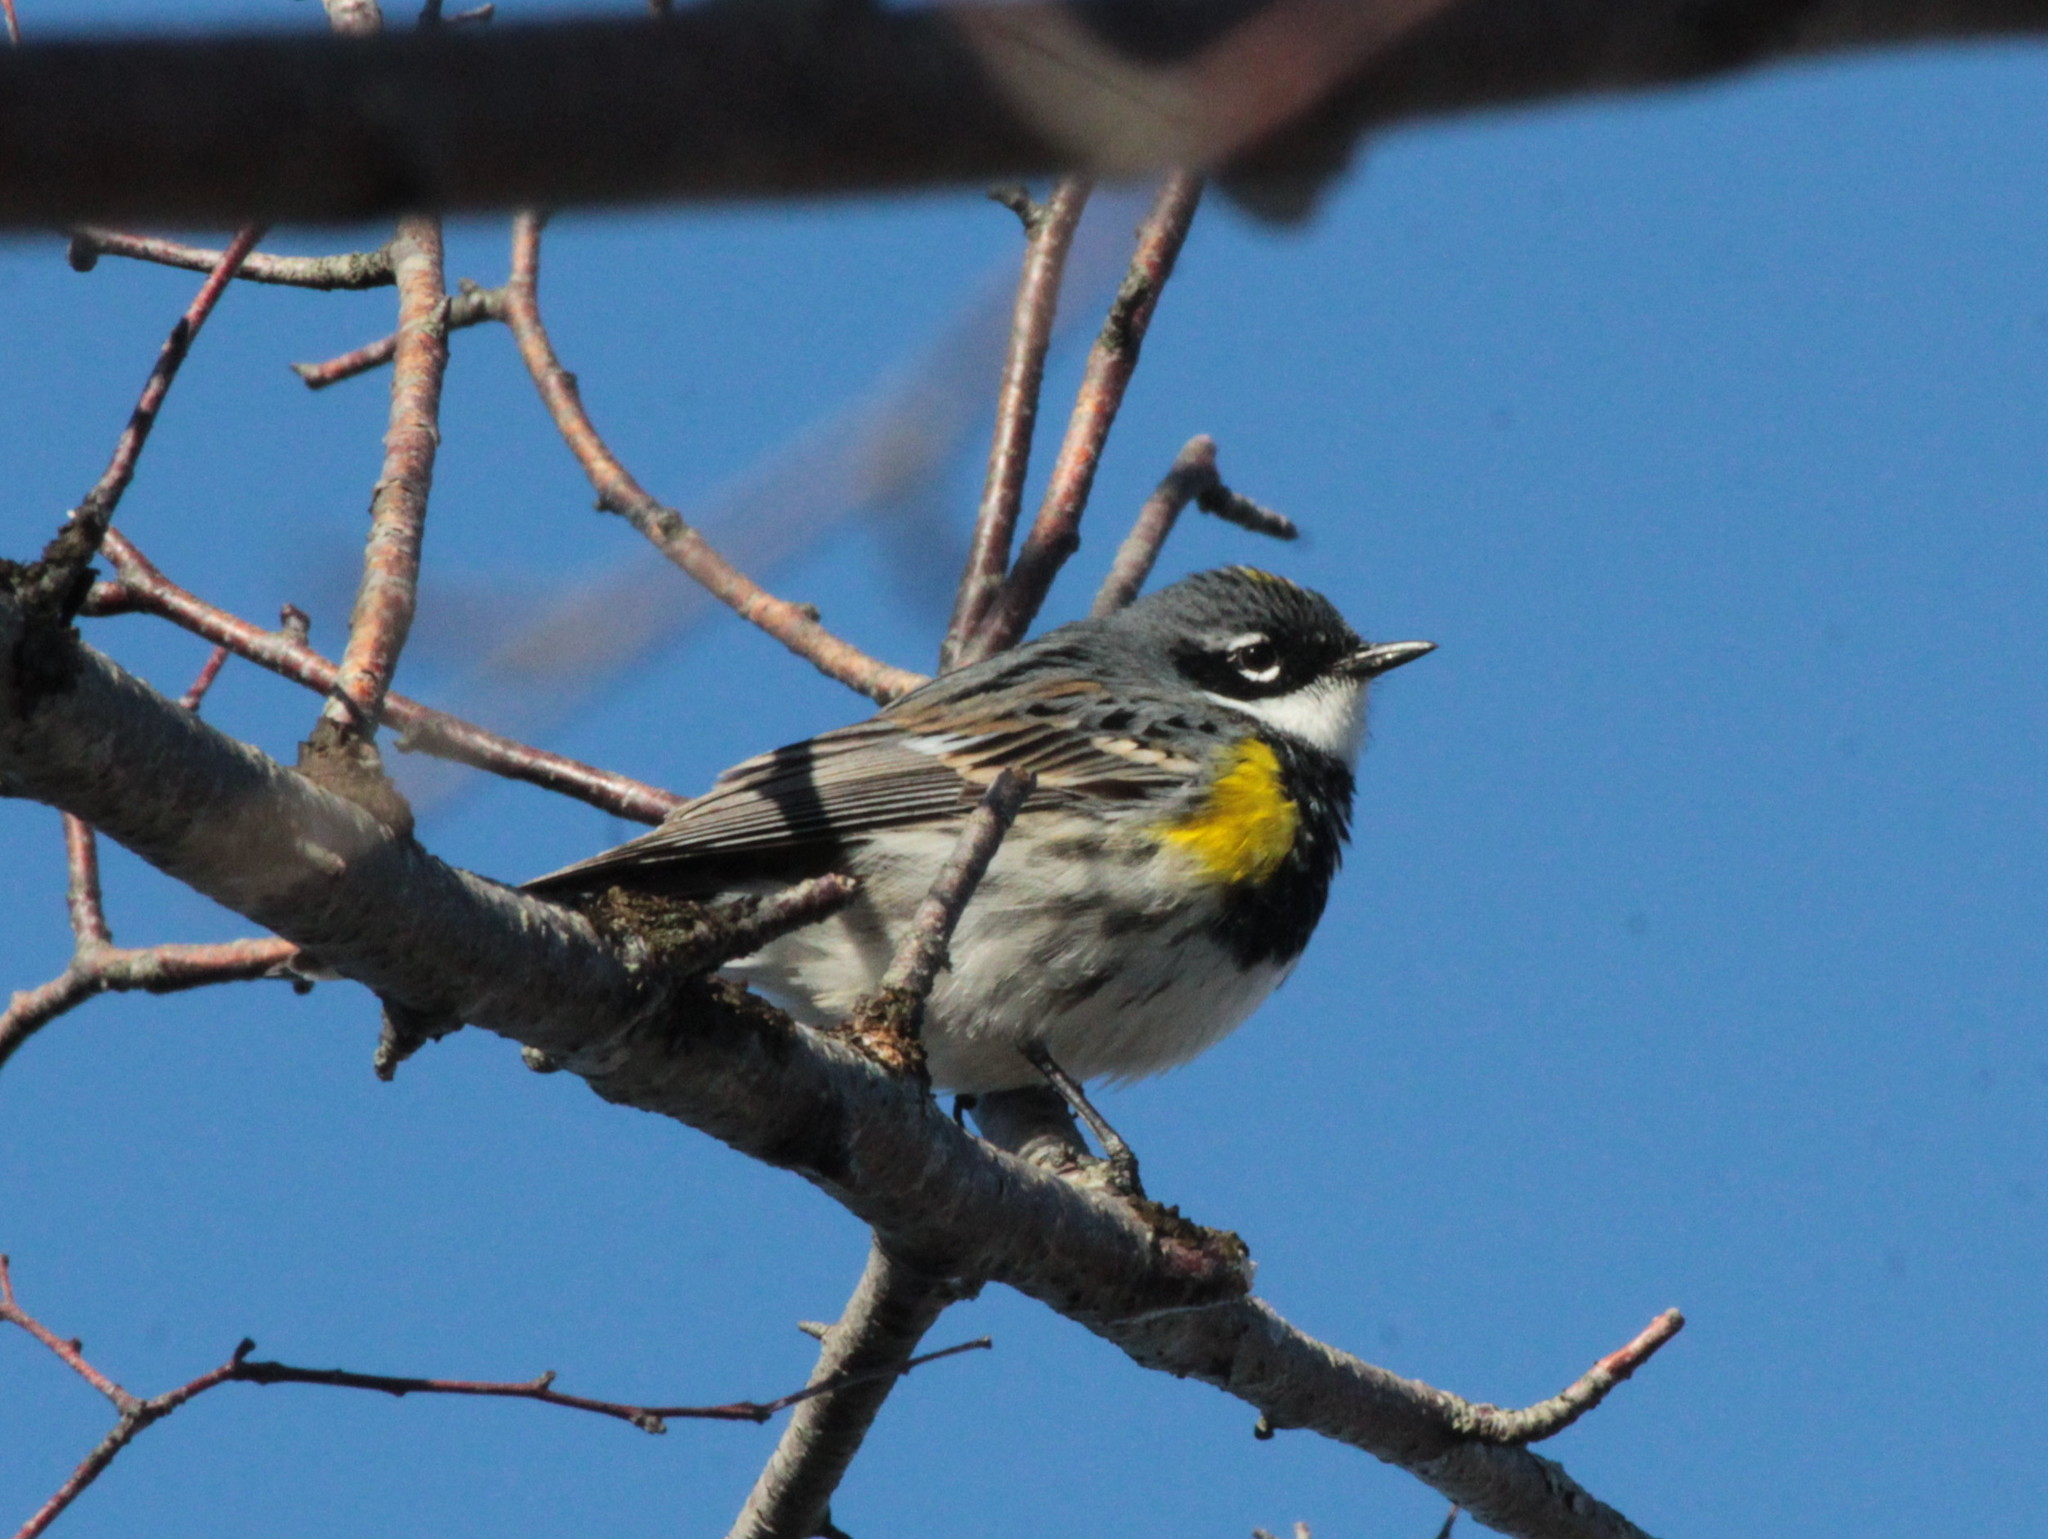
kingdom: Animalia
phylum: Chordata
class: Aves
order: Passeriformes
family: Parulidae
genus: Setophaga
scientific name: Setophaga coronata
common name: Myrtle warbler
